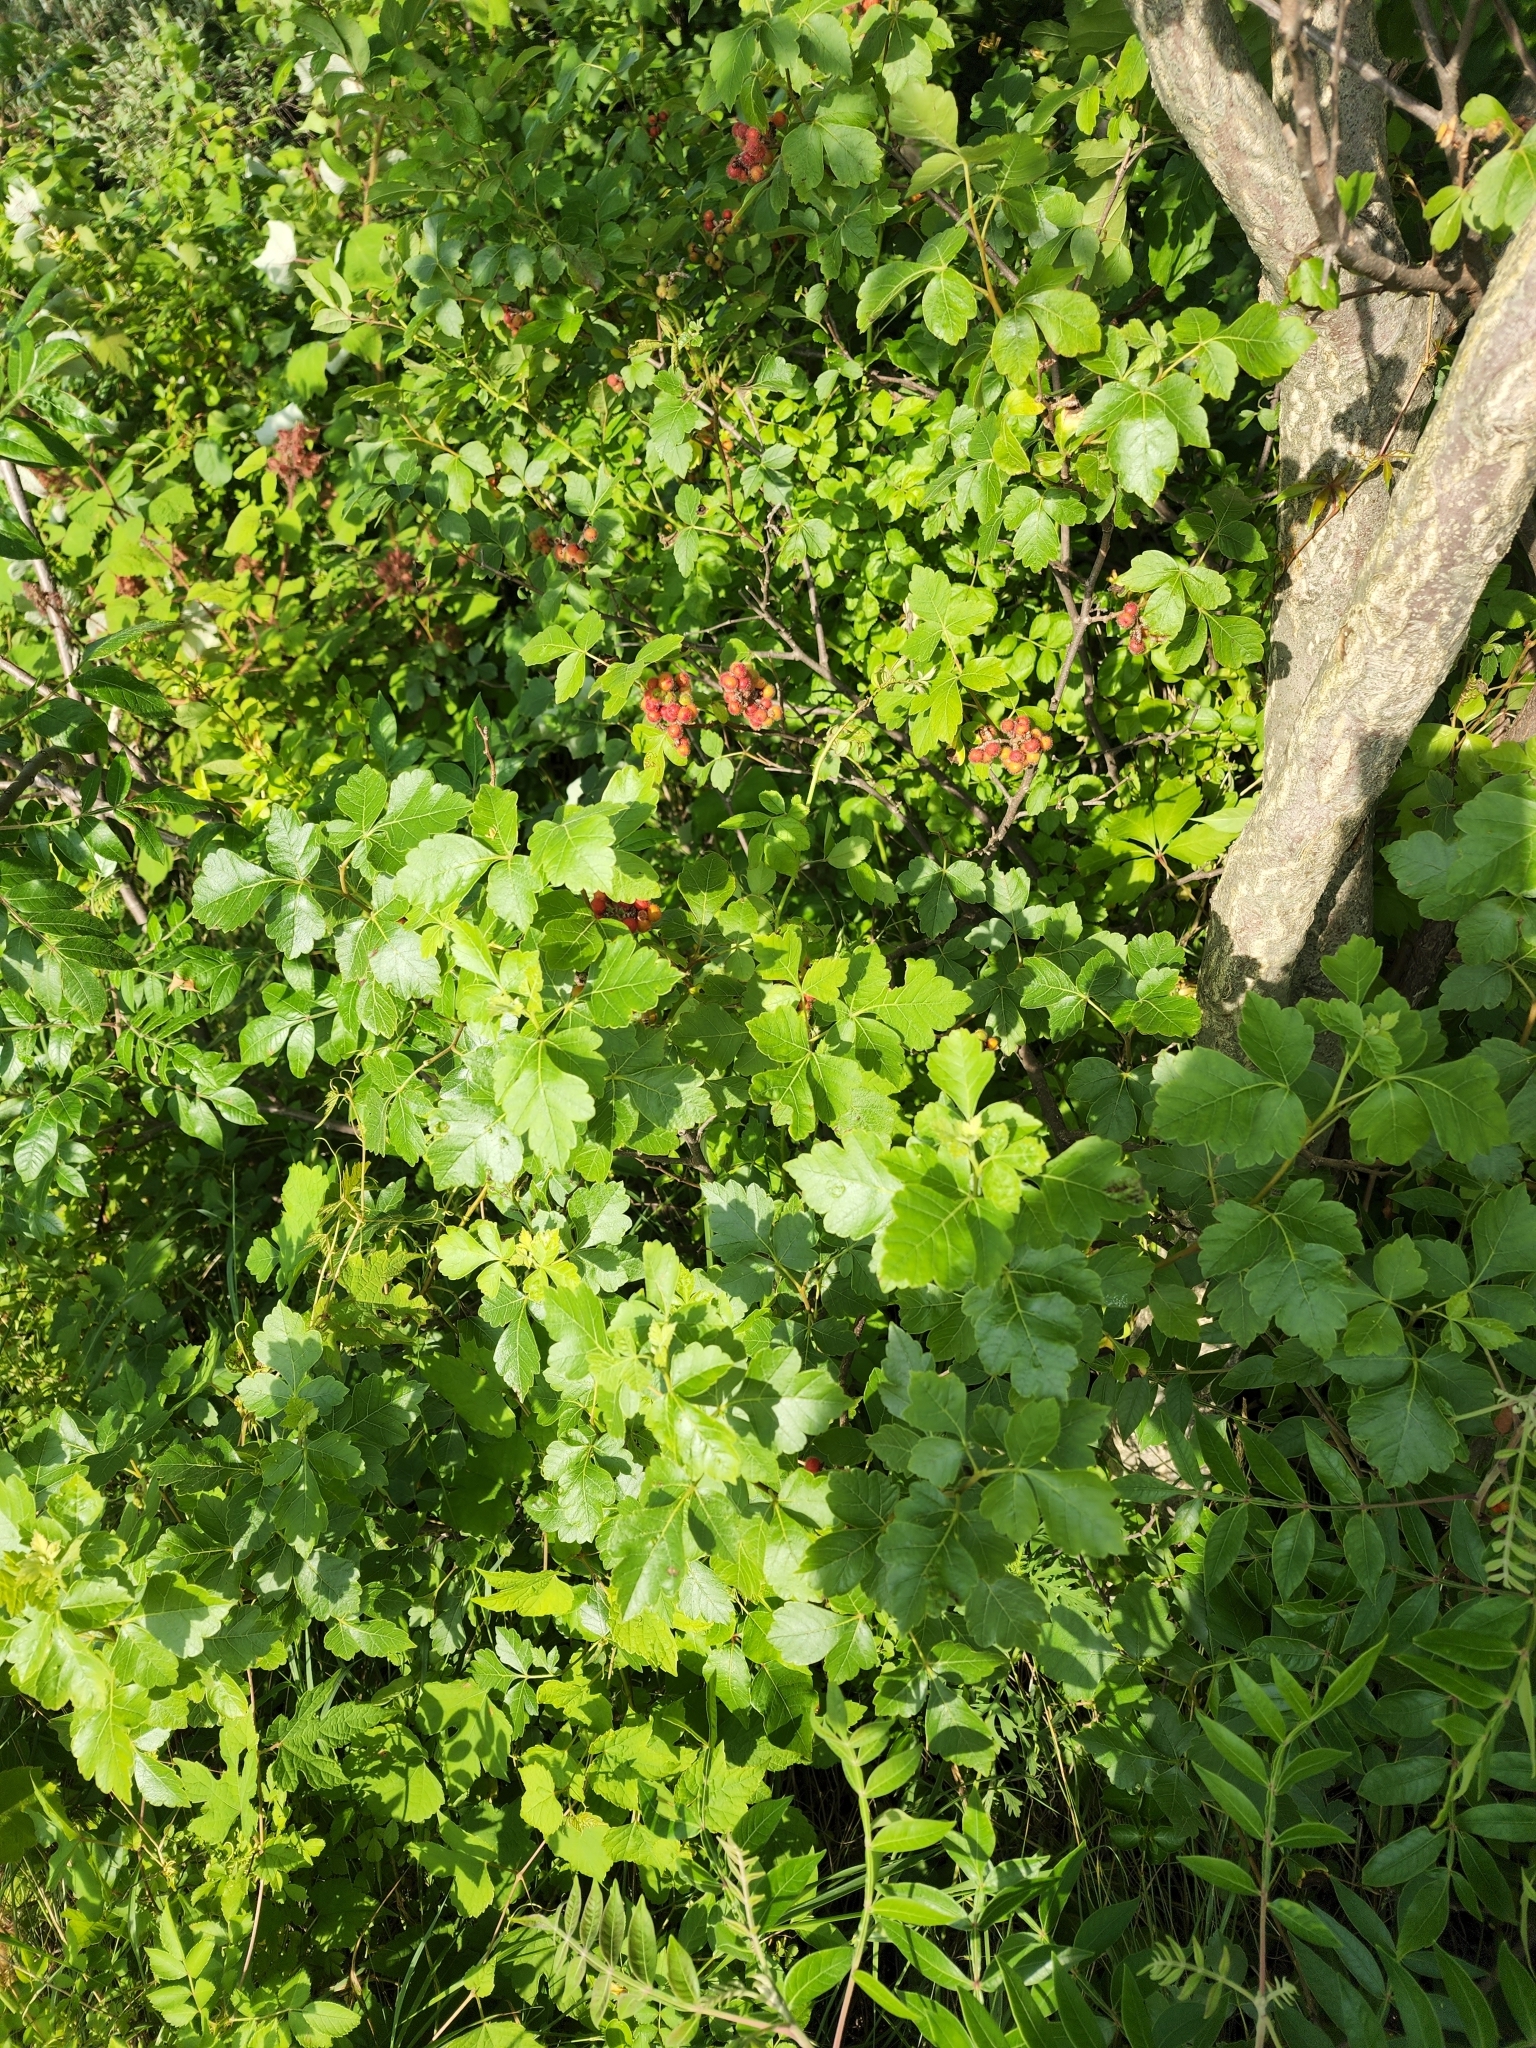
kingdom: Plantae
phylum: Tracheophyta
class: Magnoliopsida
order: Sapindales
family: Anacardiaceae
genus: Rhus
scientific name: Rhus aromatica
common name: Aromatic sumac
